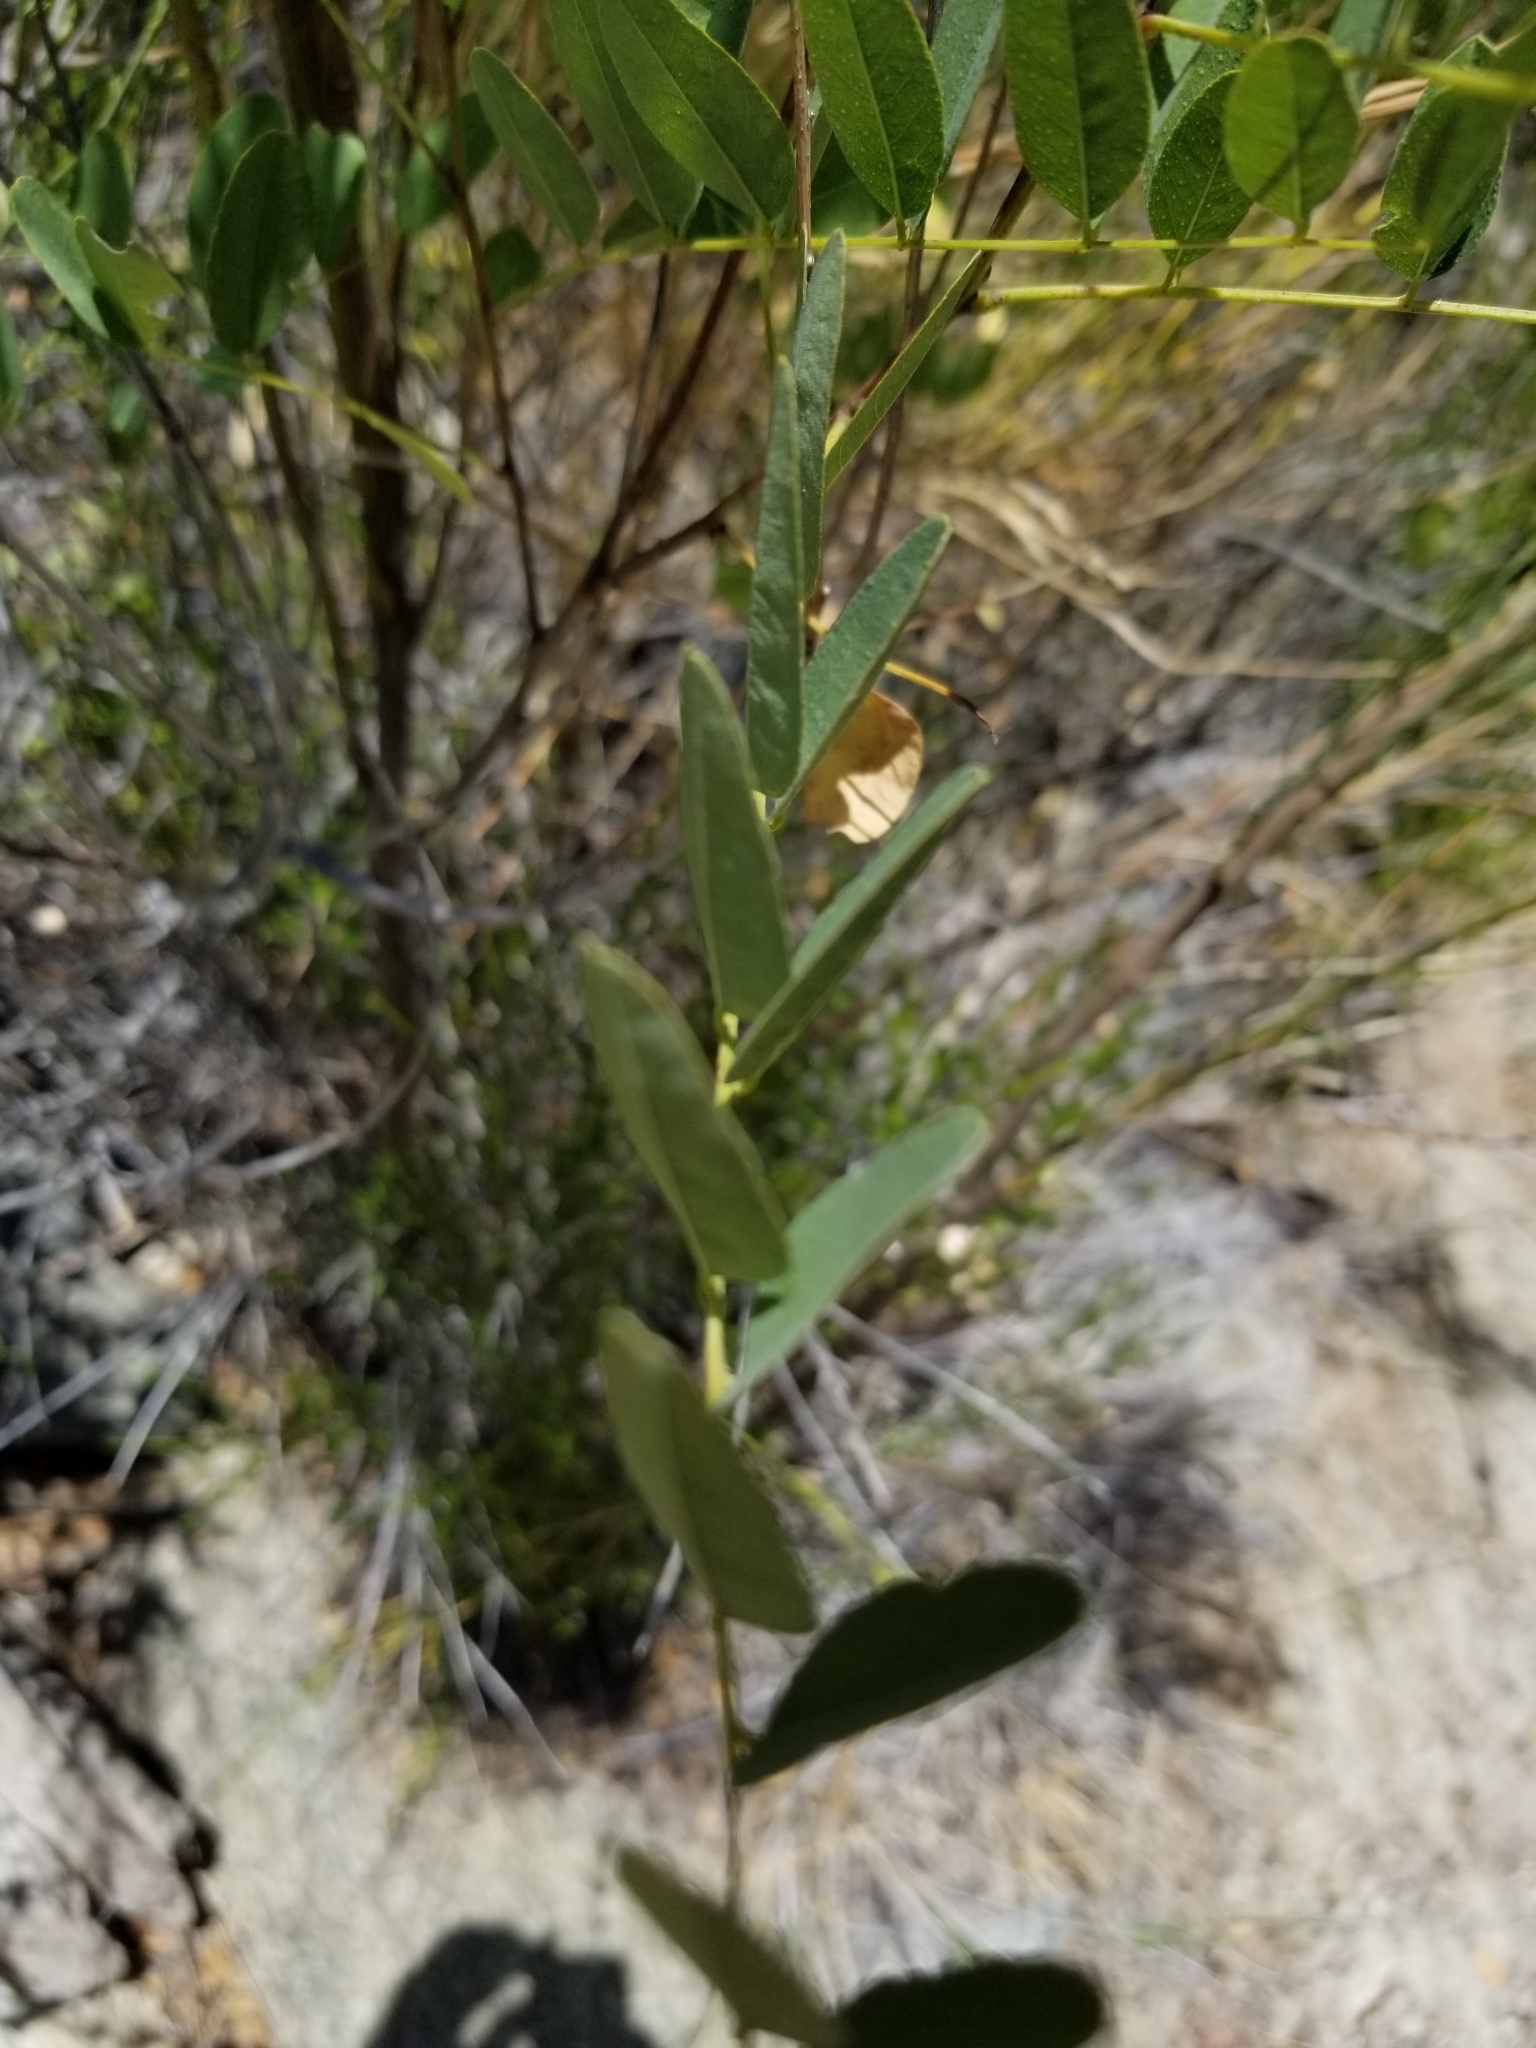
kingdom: Plantae
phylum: Tracheophyta
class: Magnoliopsida
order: Fabales
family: Fabaceae
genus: Amorpha
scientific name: Amorpha fruticosa
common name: False indigo
